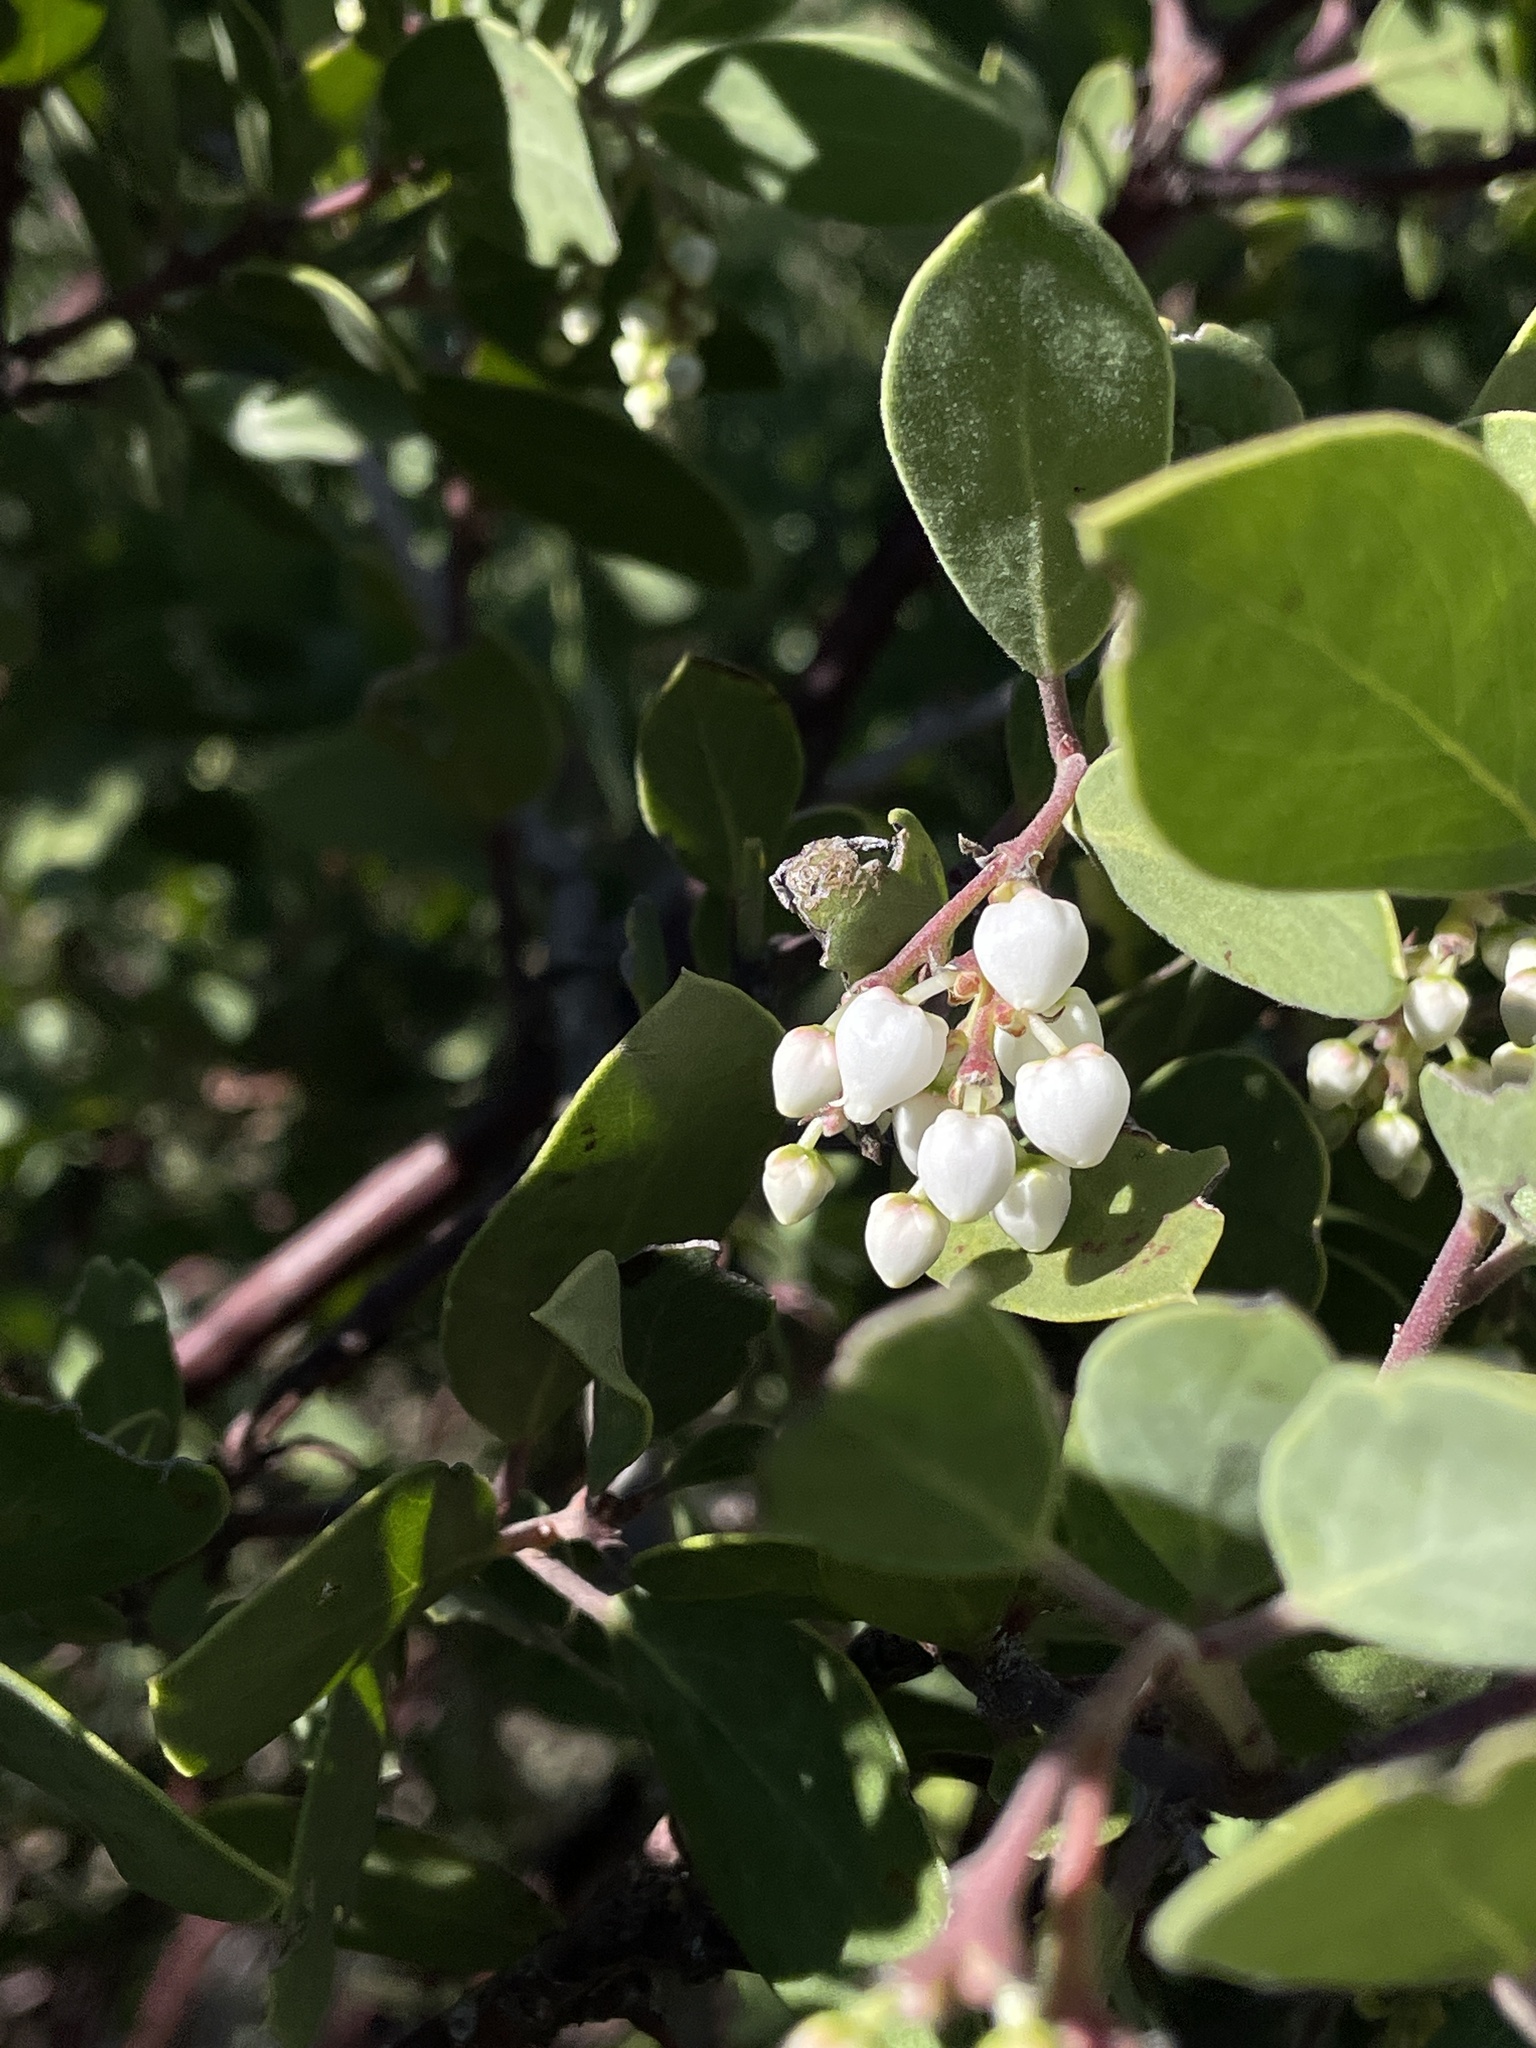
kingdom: Plantae
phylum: Tracheophyta
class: Magnoliopsida
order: Ericales
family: Ericaceae
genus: Arctostaphylos
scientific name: Arctostaphylos manzanita
